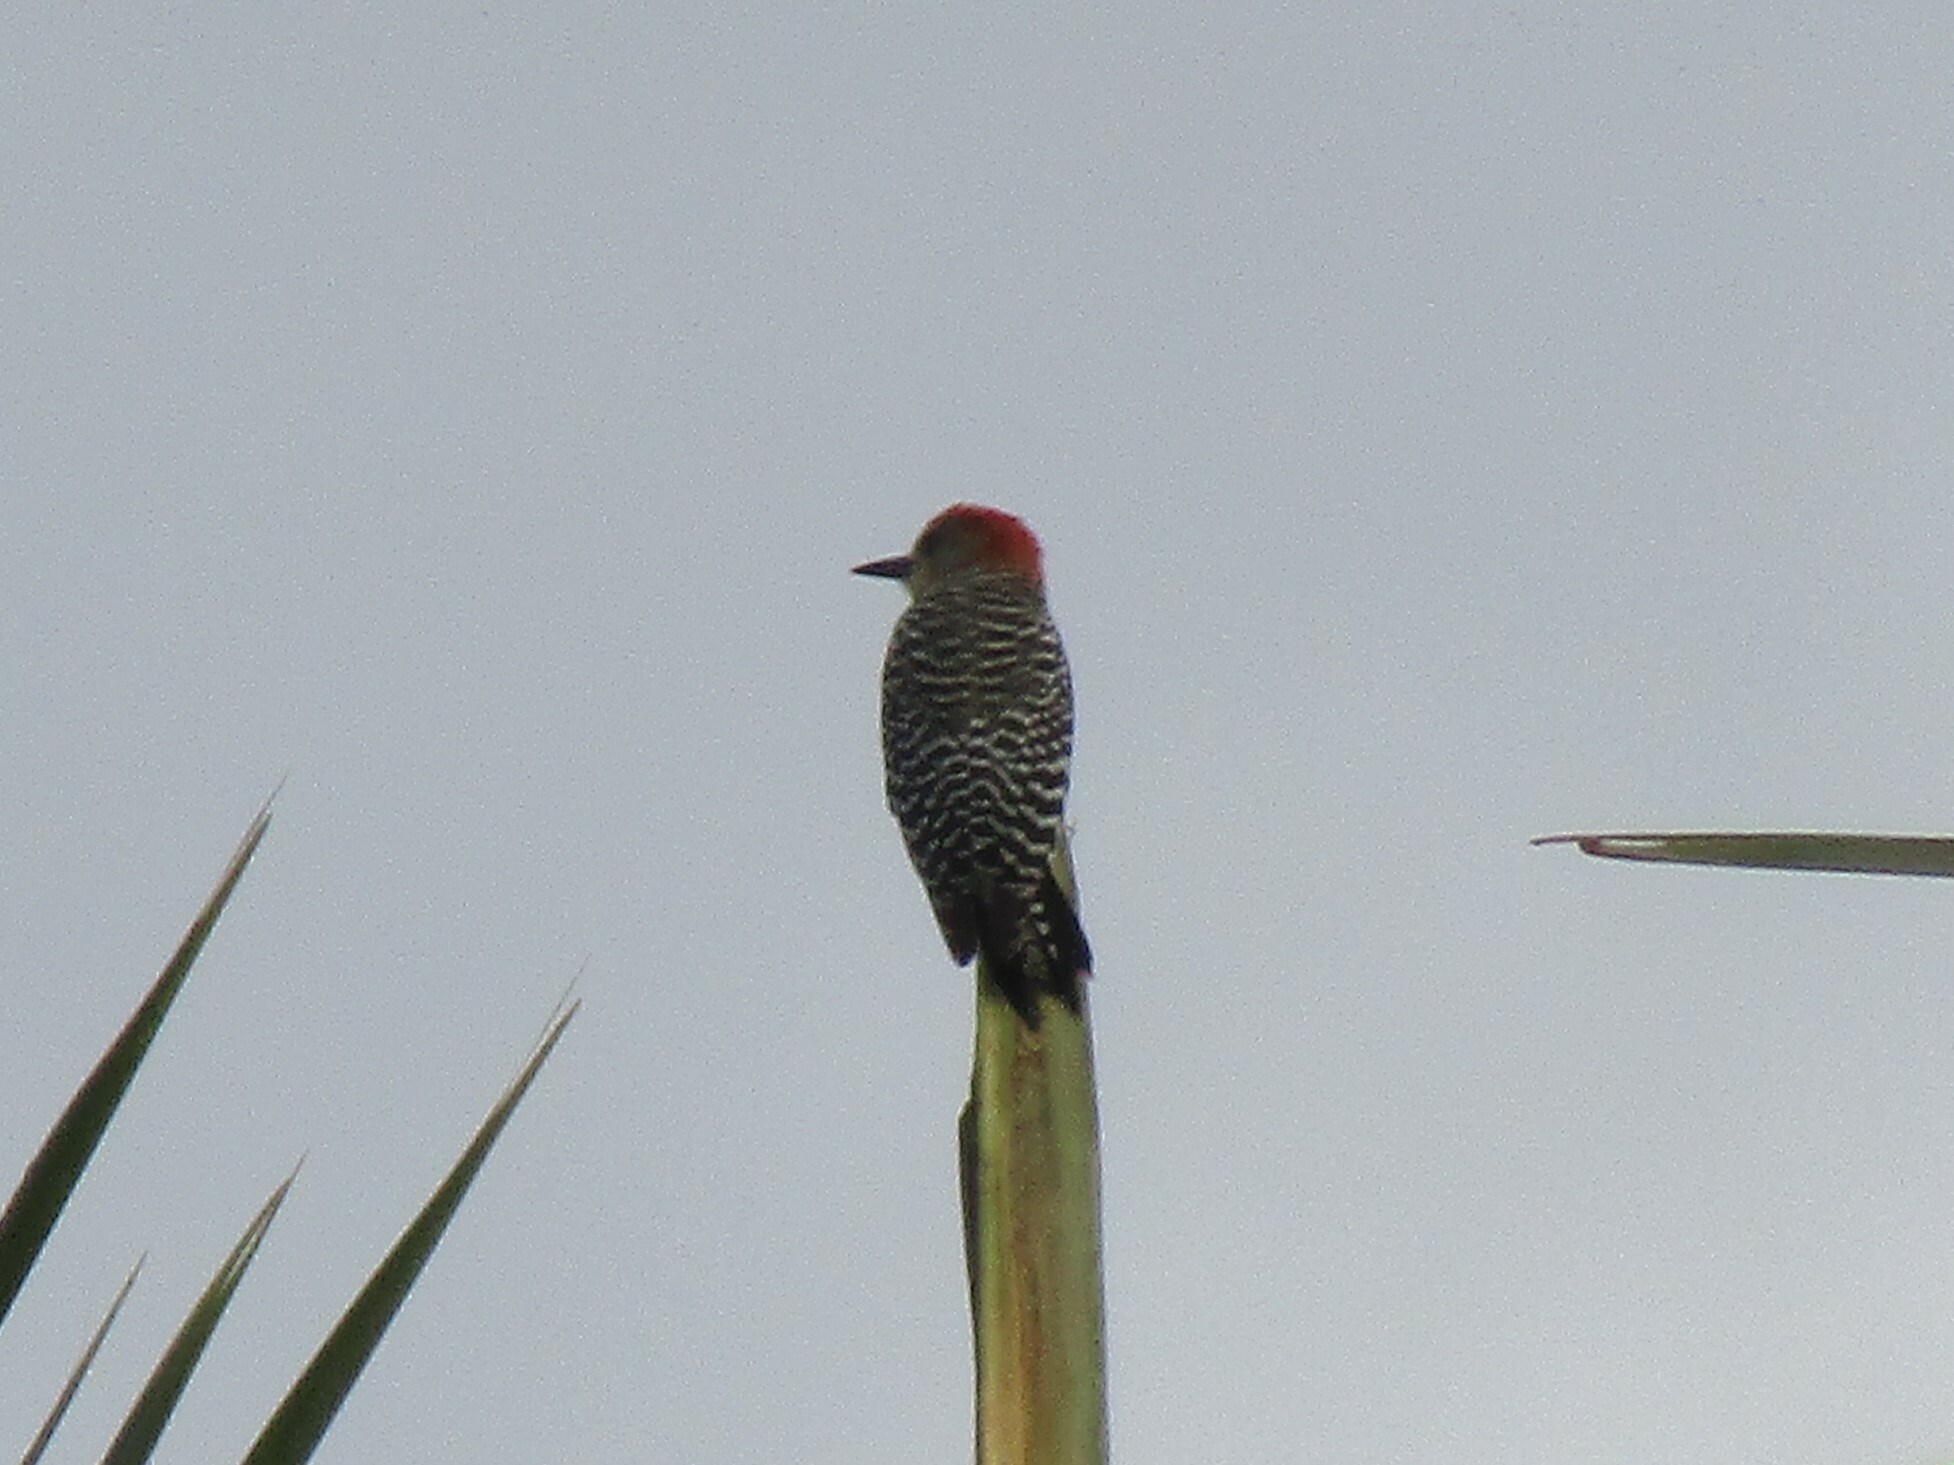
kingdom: Animalia
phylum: Chordata
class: Aves
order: Piciformes
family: Picidae
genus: Melanerpes
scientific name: Melanerpes rubricapillus
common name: Red-crowned woodpecker
